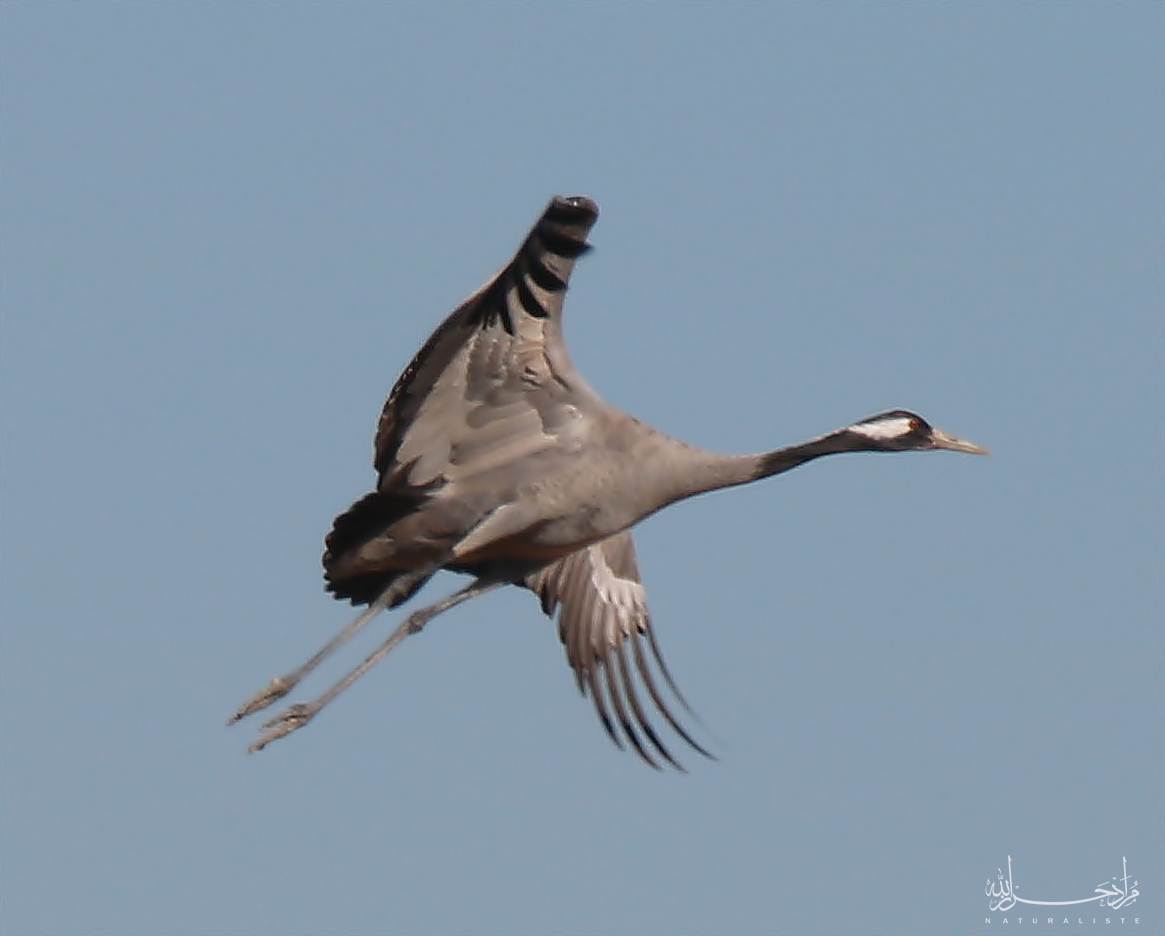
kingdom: Animalia
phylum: Chordata
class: Aves
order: Gruiformes
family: Gruidae
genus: Grus
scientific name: Grus grus
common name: Common crane
